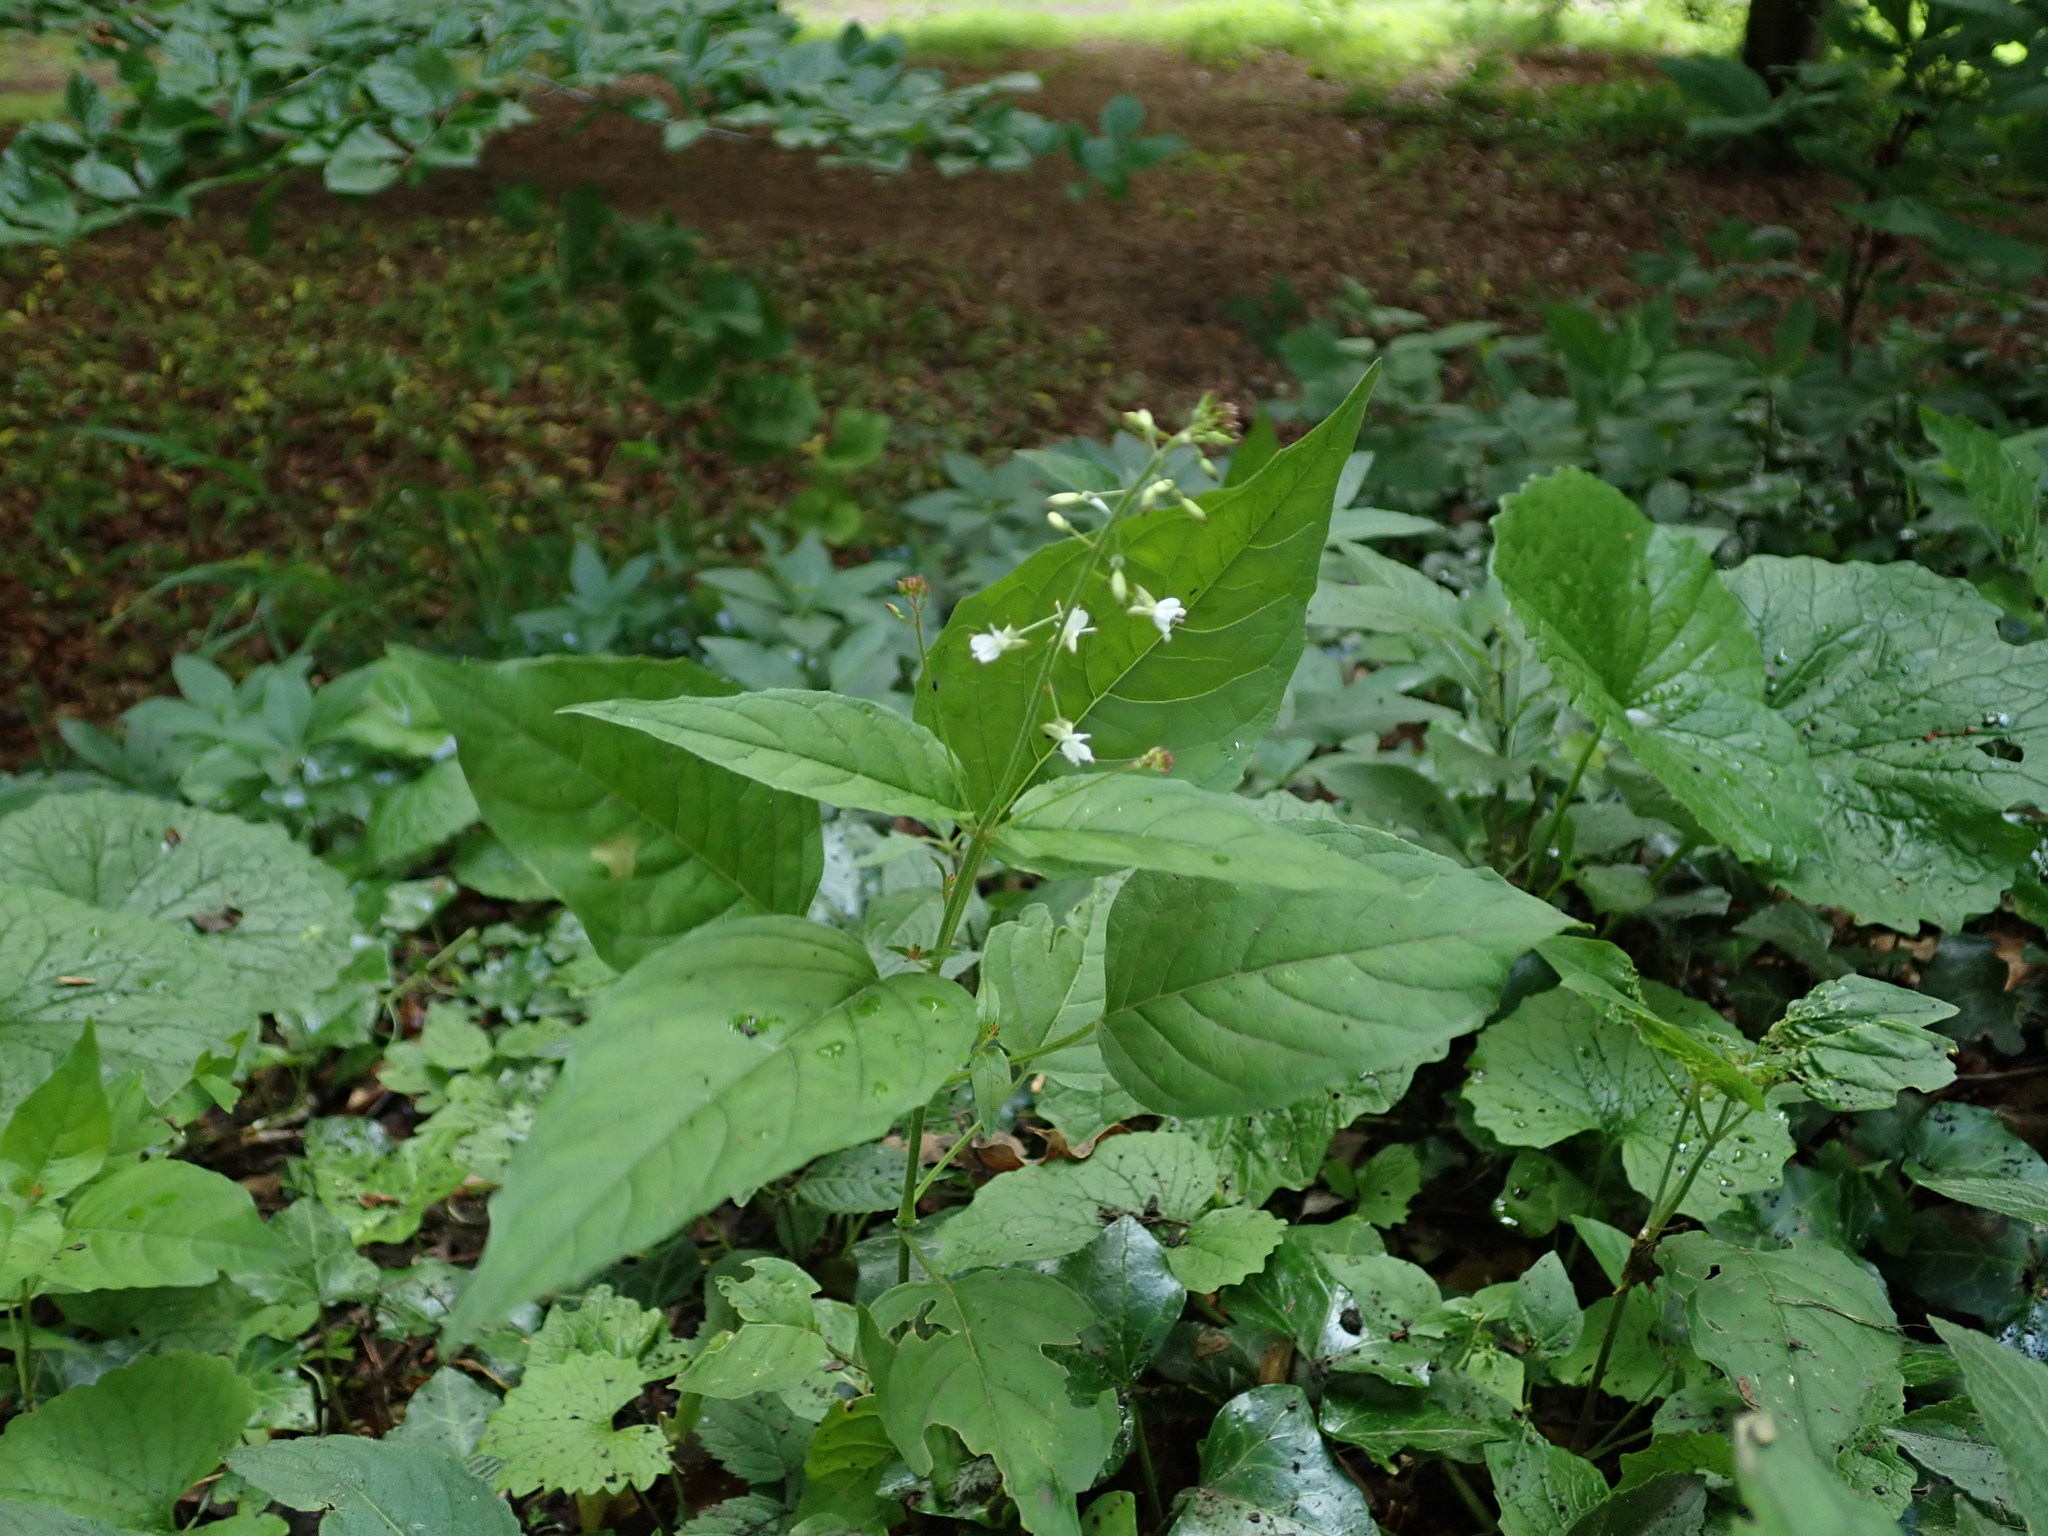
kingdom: Plantae
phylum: Tracheophyta
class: Magnoliopsida
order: Myrtales
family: Onagraceae
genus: Circaea
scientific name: Circaea lutetiana
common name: Enchanter's-nightshade
